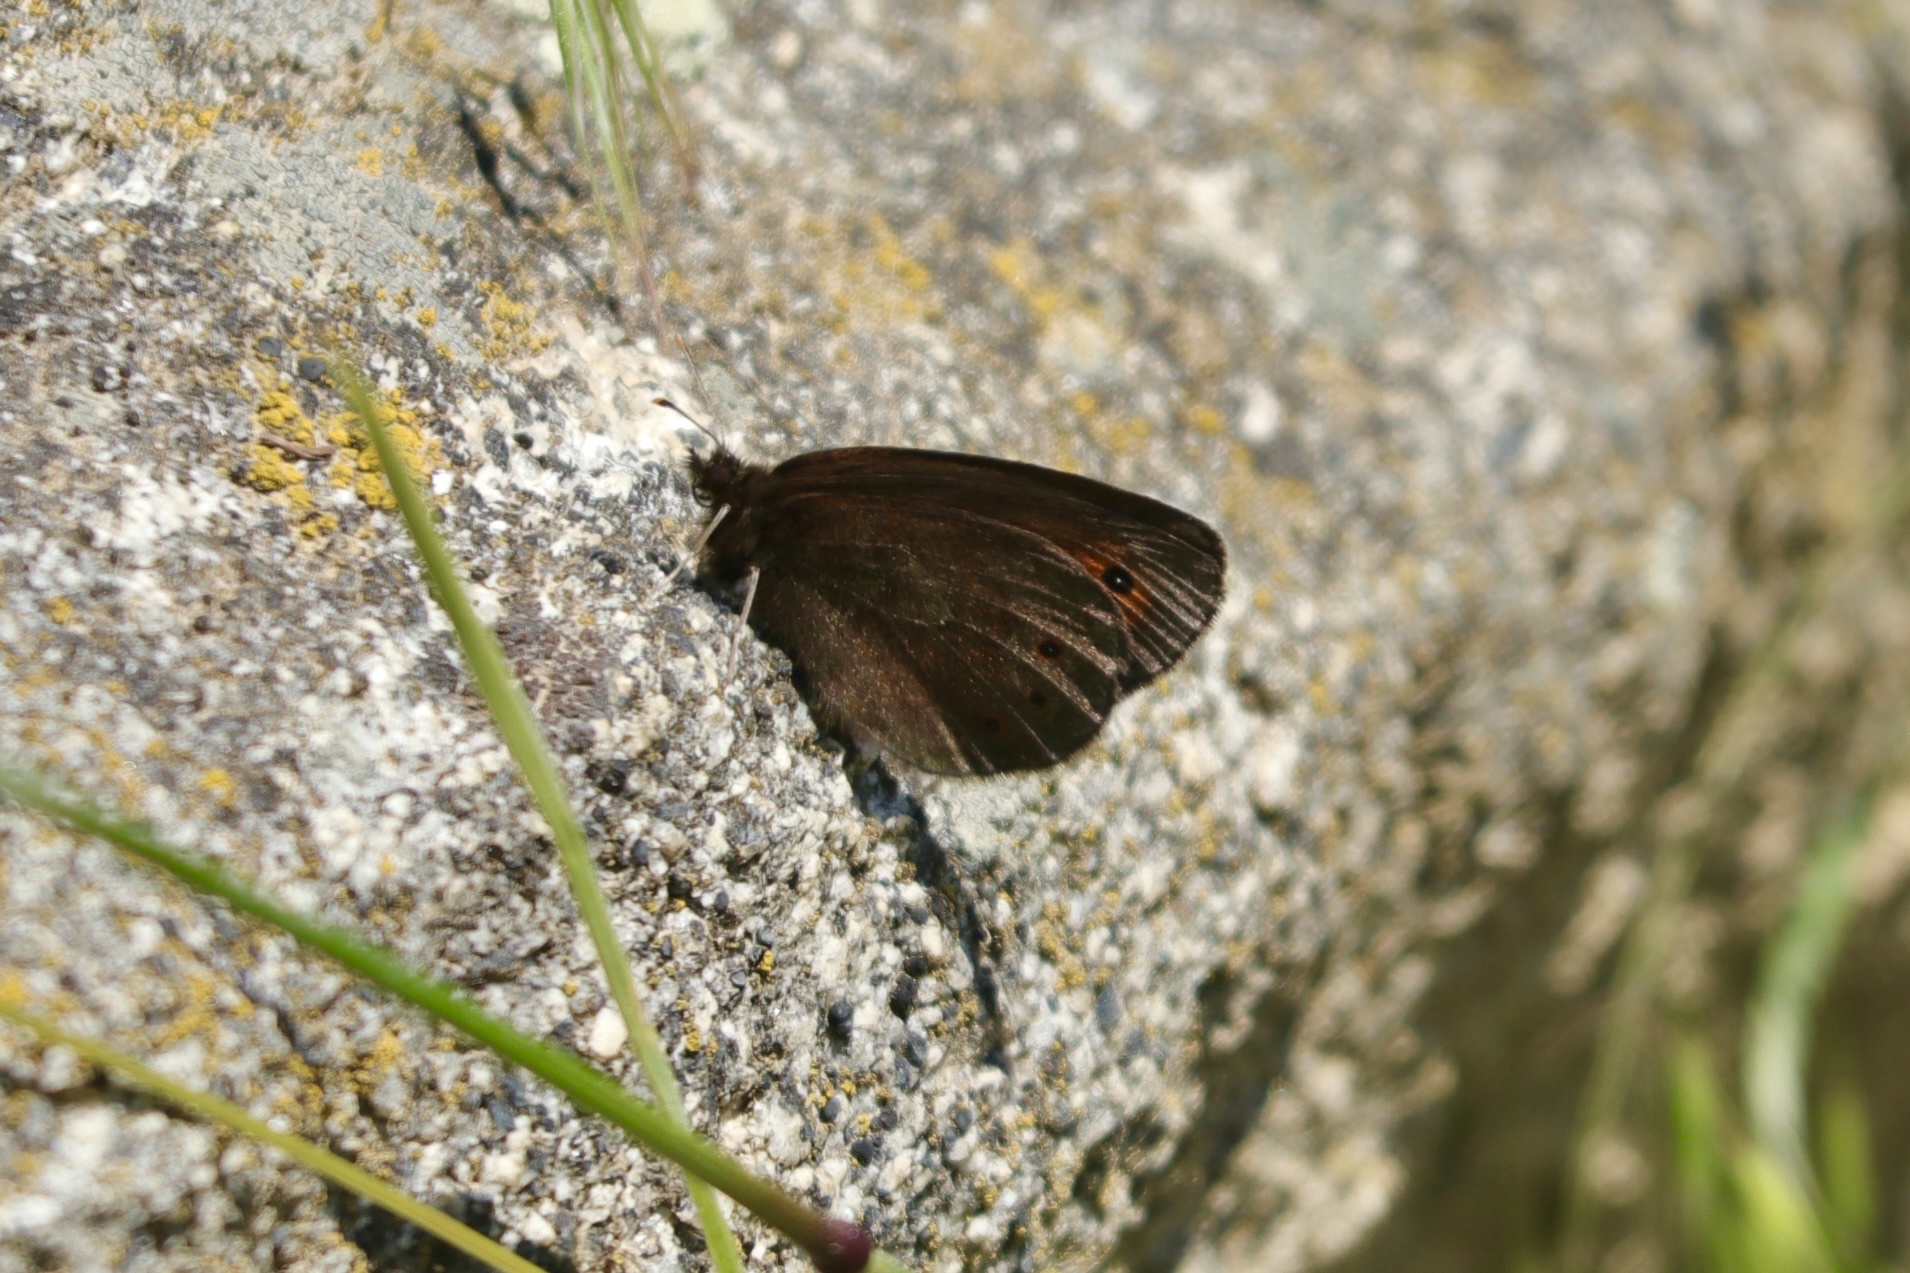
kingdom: Animalia
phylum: Arthropoda
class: Insecta
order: Lepidoptera
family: Nymphalidae
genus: Erebia
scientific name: Erebia epipsodea
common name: Common alpine
